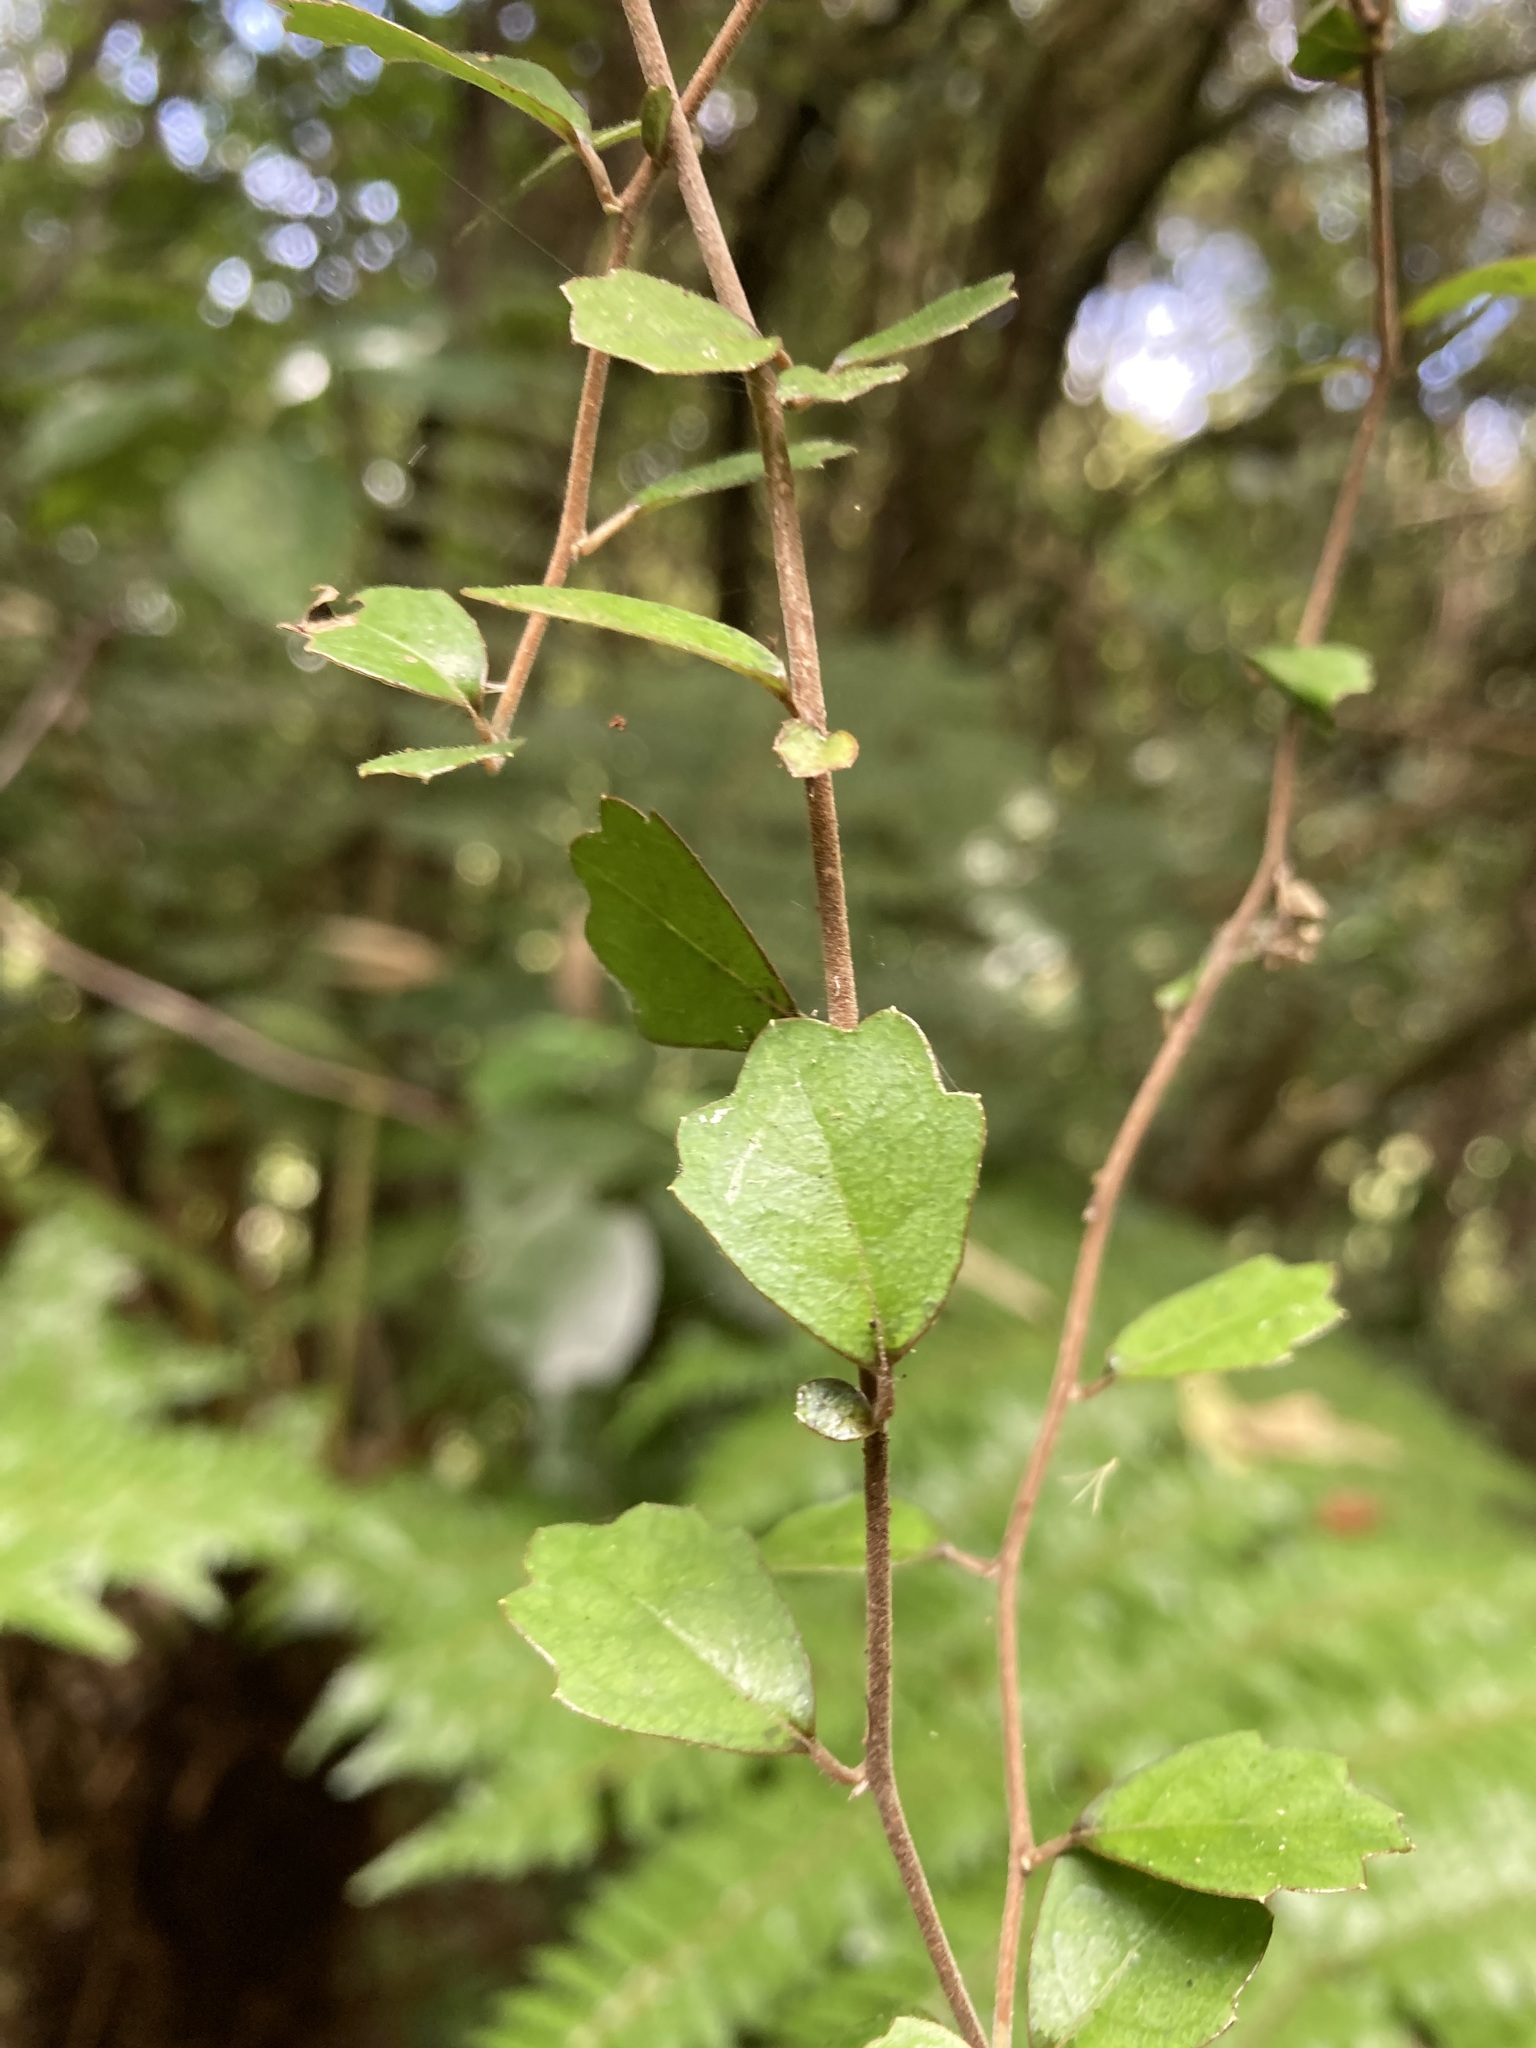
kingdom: Plantae
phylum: Tracheophyta
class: Magnoliopsida
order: Apiales
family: Pennantiaceae
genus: Pennantia
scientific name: Pennantia corymbosa
